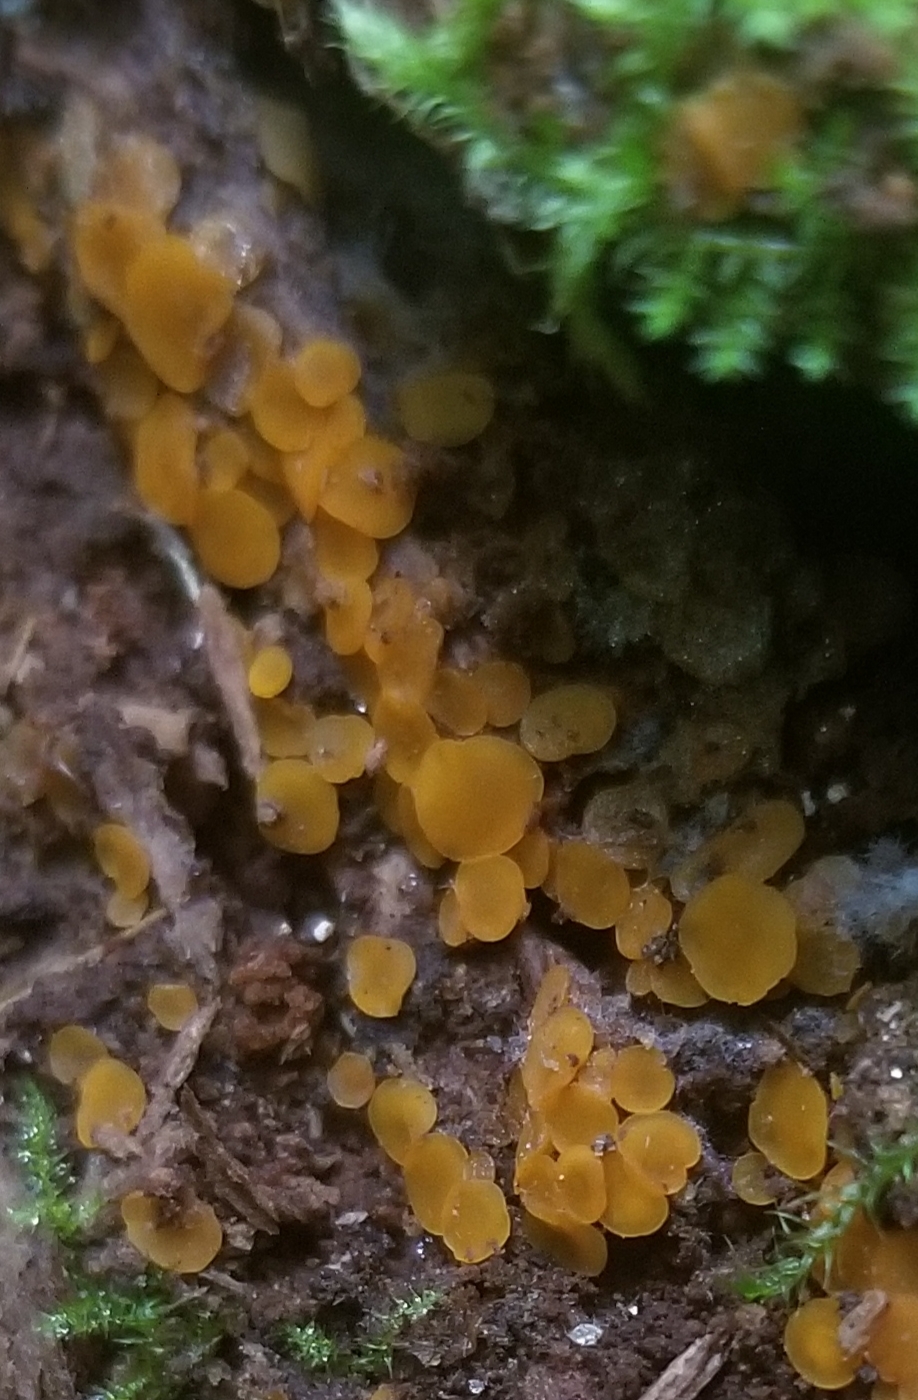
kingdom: Fungi
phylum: Ascomycota
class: Orbiliomycetes
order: Orbiliales
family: Orbiliaceae
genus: Orbilia
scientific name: Orbilia
